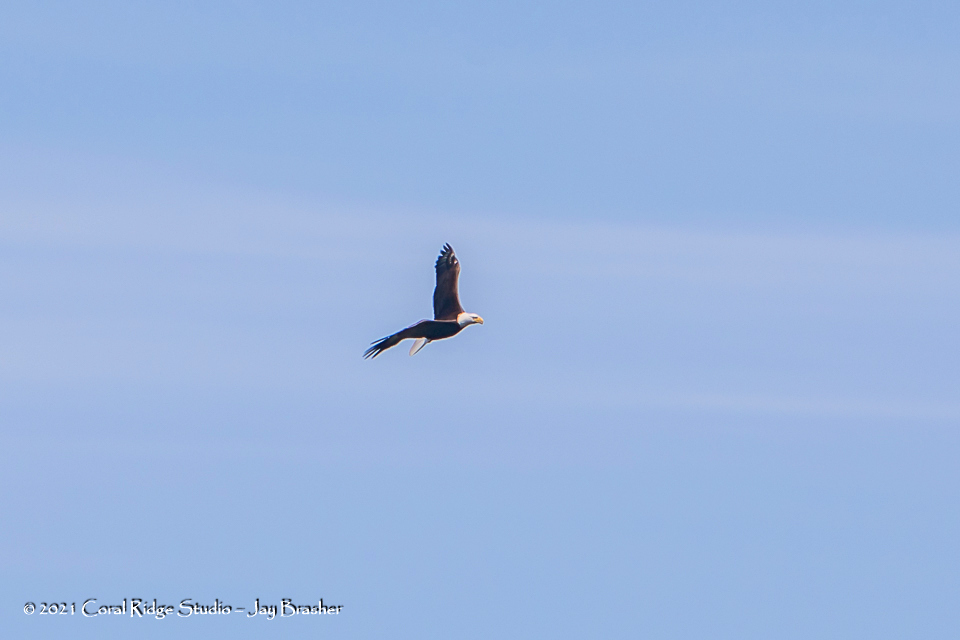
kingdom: Animalia
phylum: Chordata
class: Aves
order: Accipitriformes
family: Accipitridae
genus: Haliaeetus
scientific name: Haliaeetus leucocephalus
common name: Bald eagle
